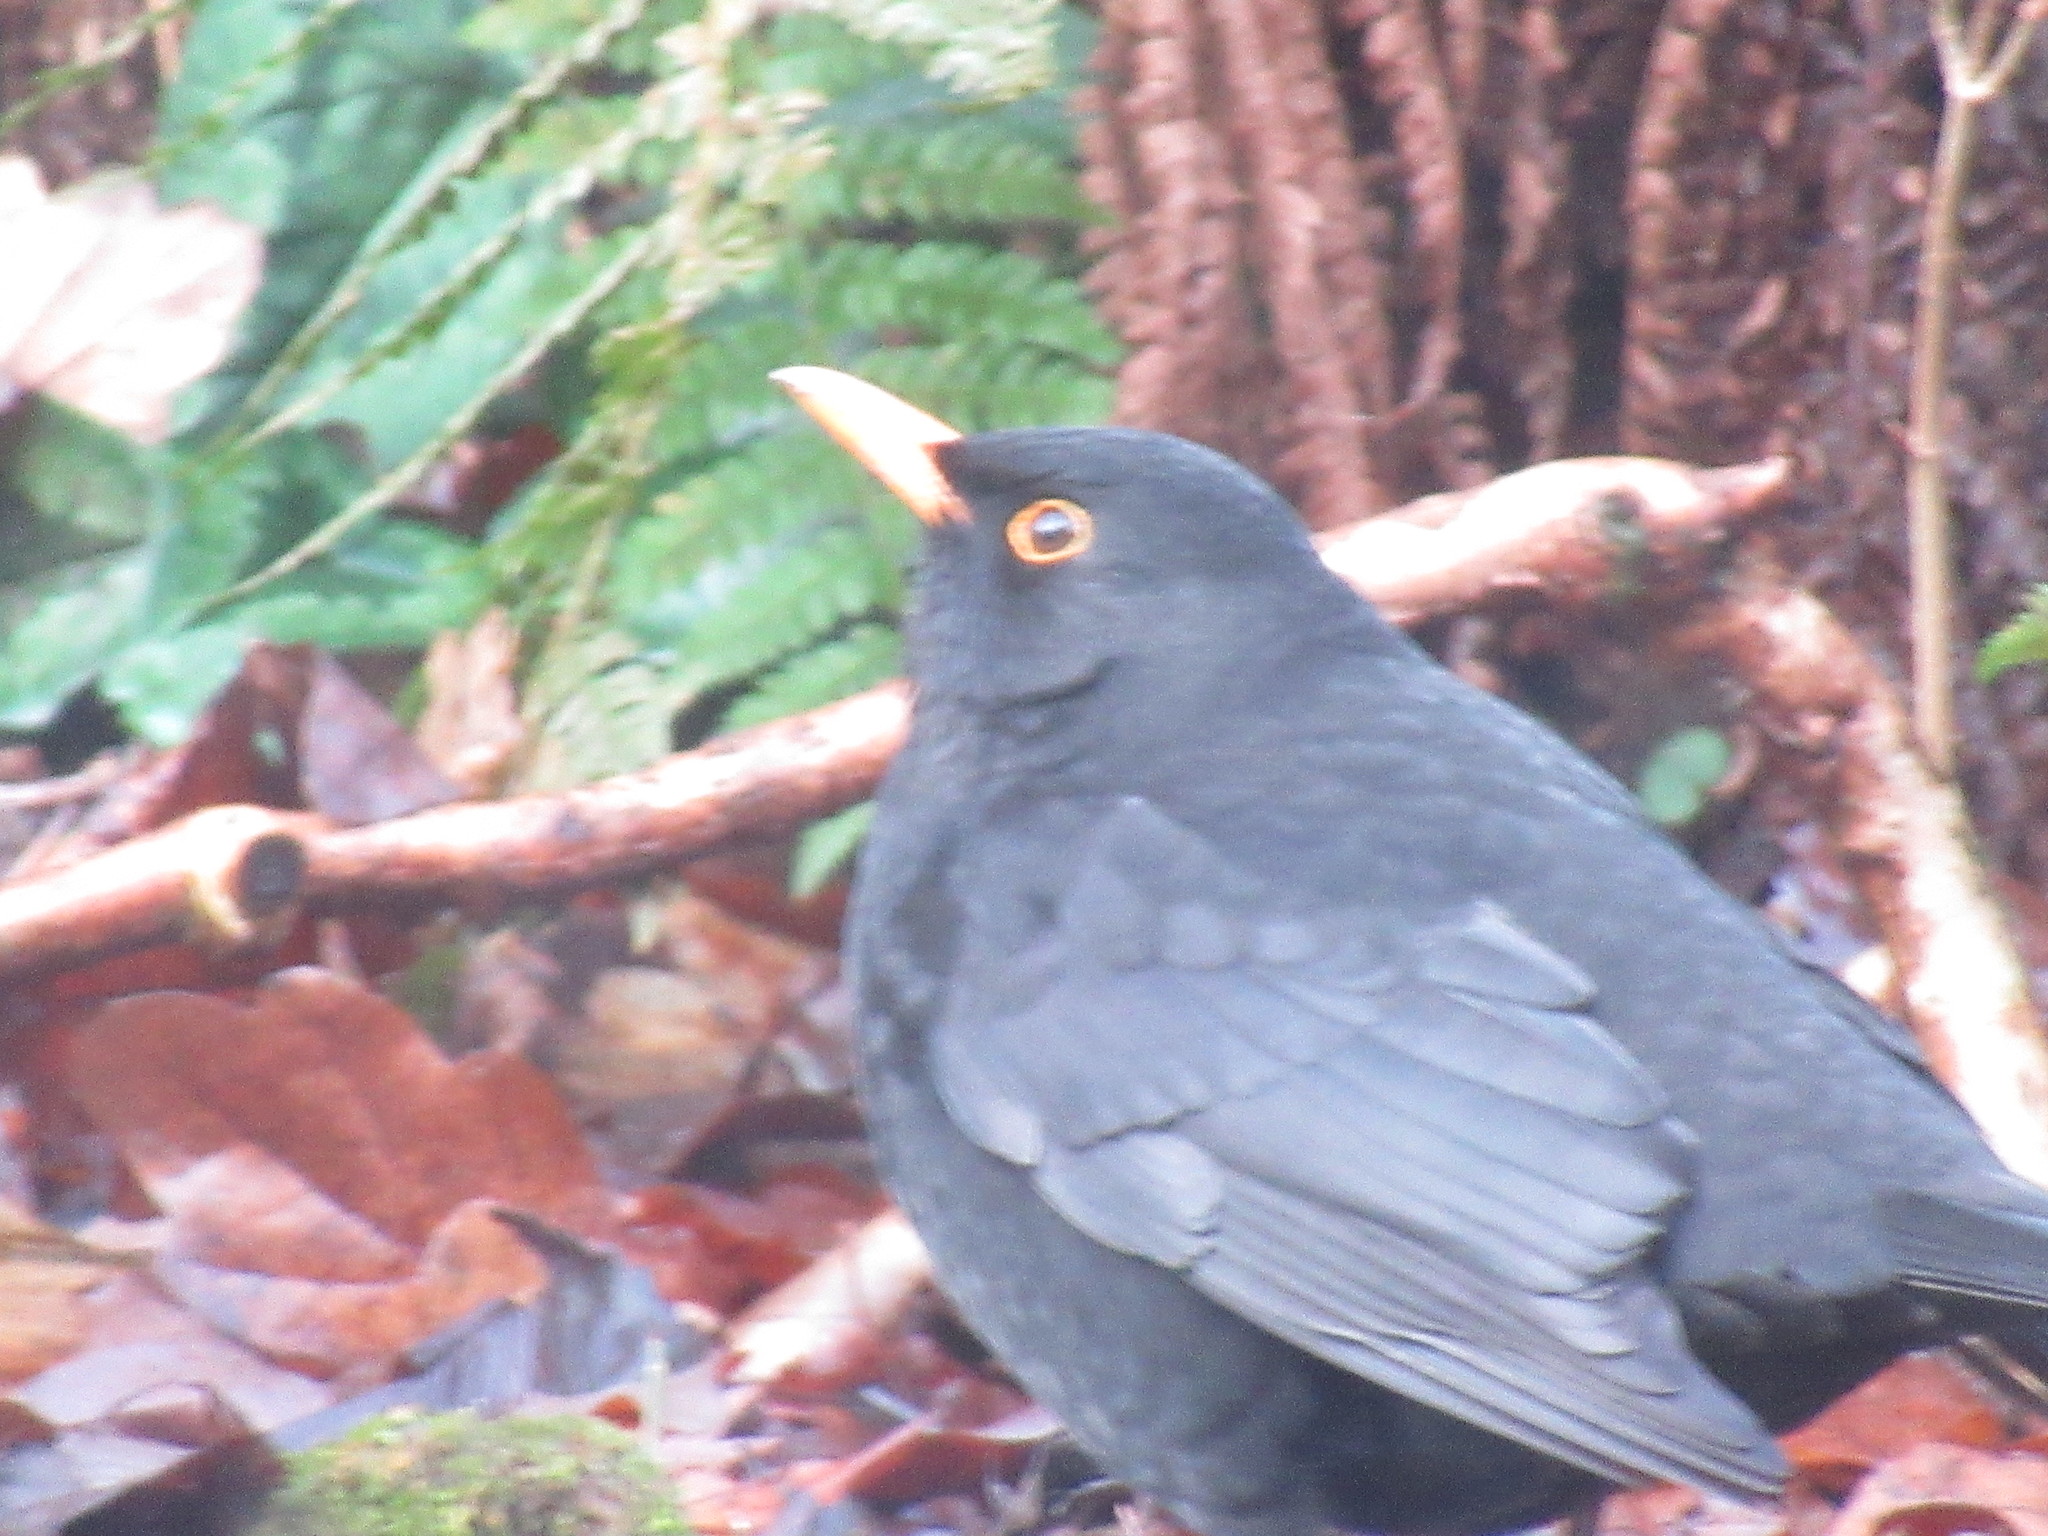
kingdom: Animalia
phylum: Chordata
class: Aves
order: Passeriformes
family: Turdidae
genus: Turdus
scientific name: Turdus merula
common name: Common blackbird
